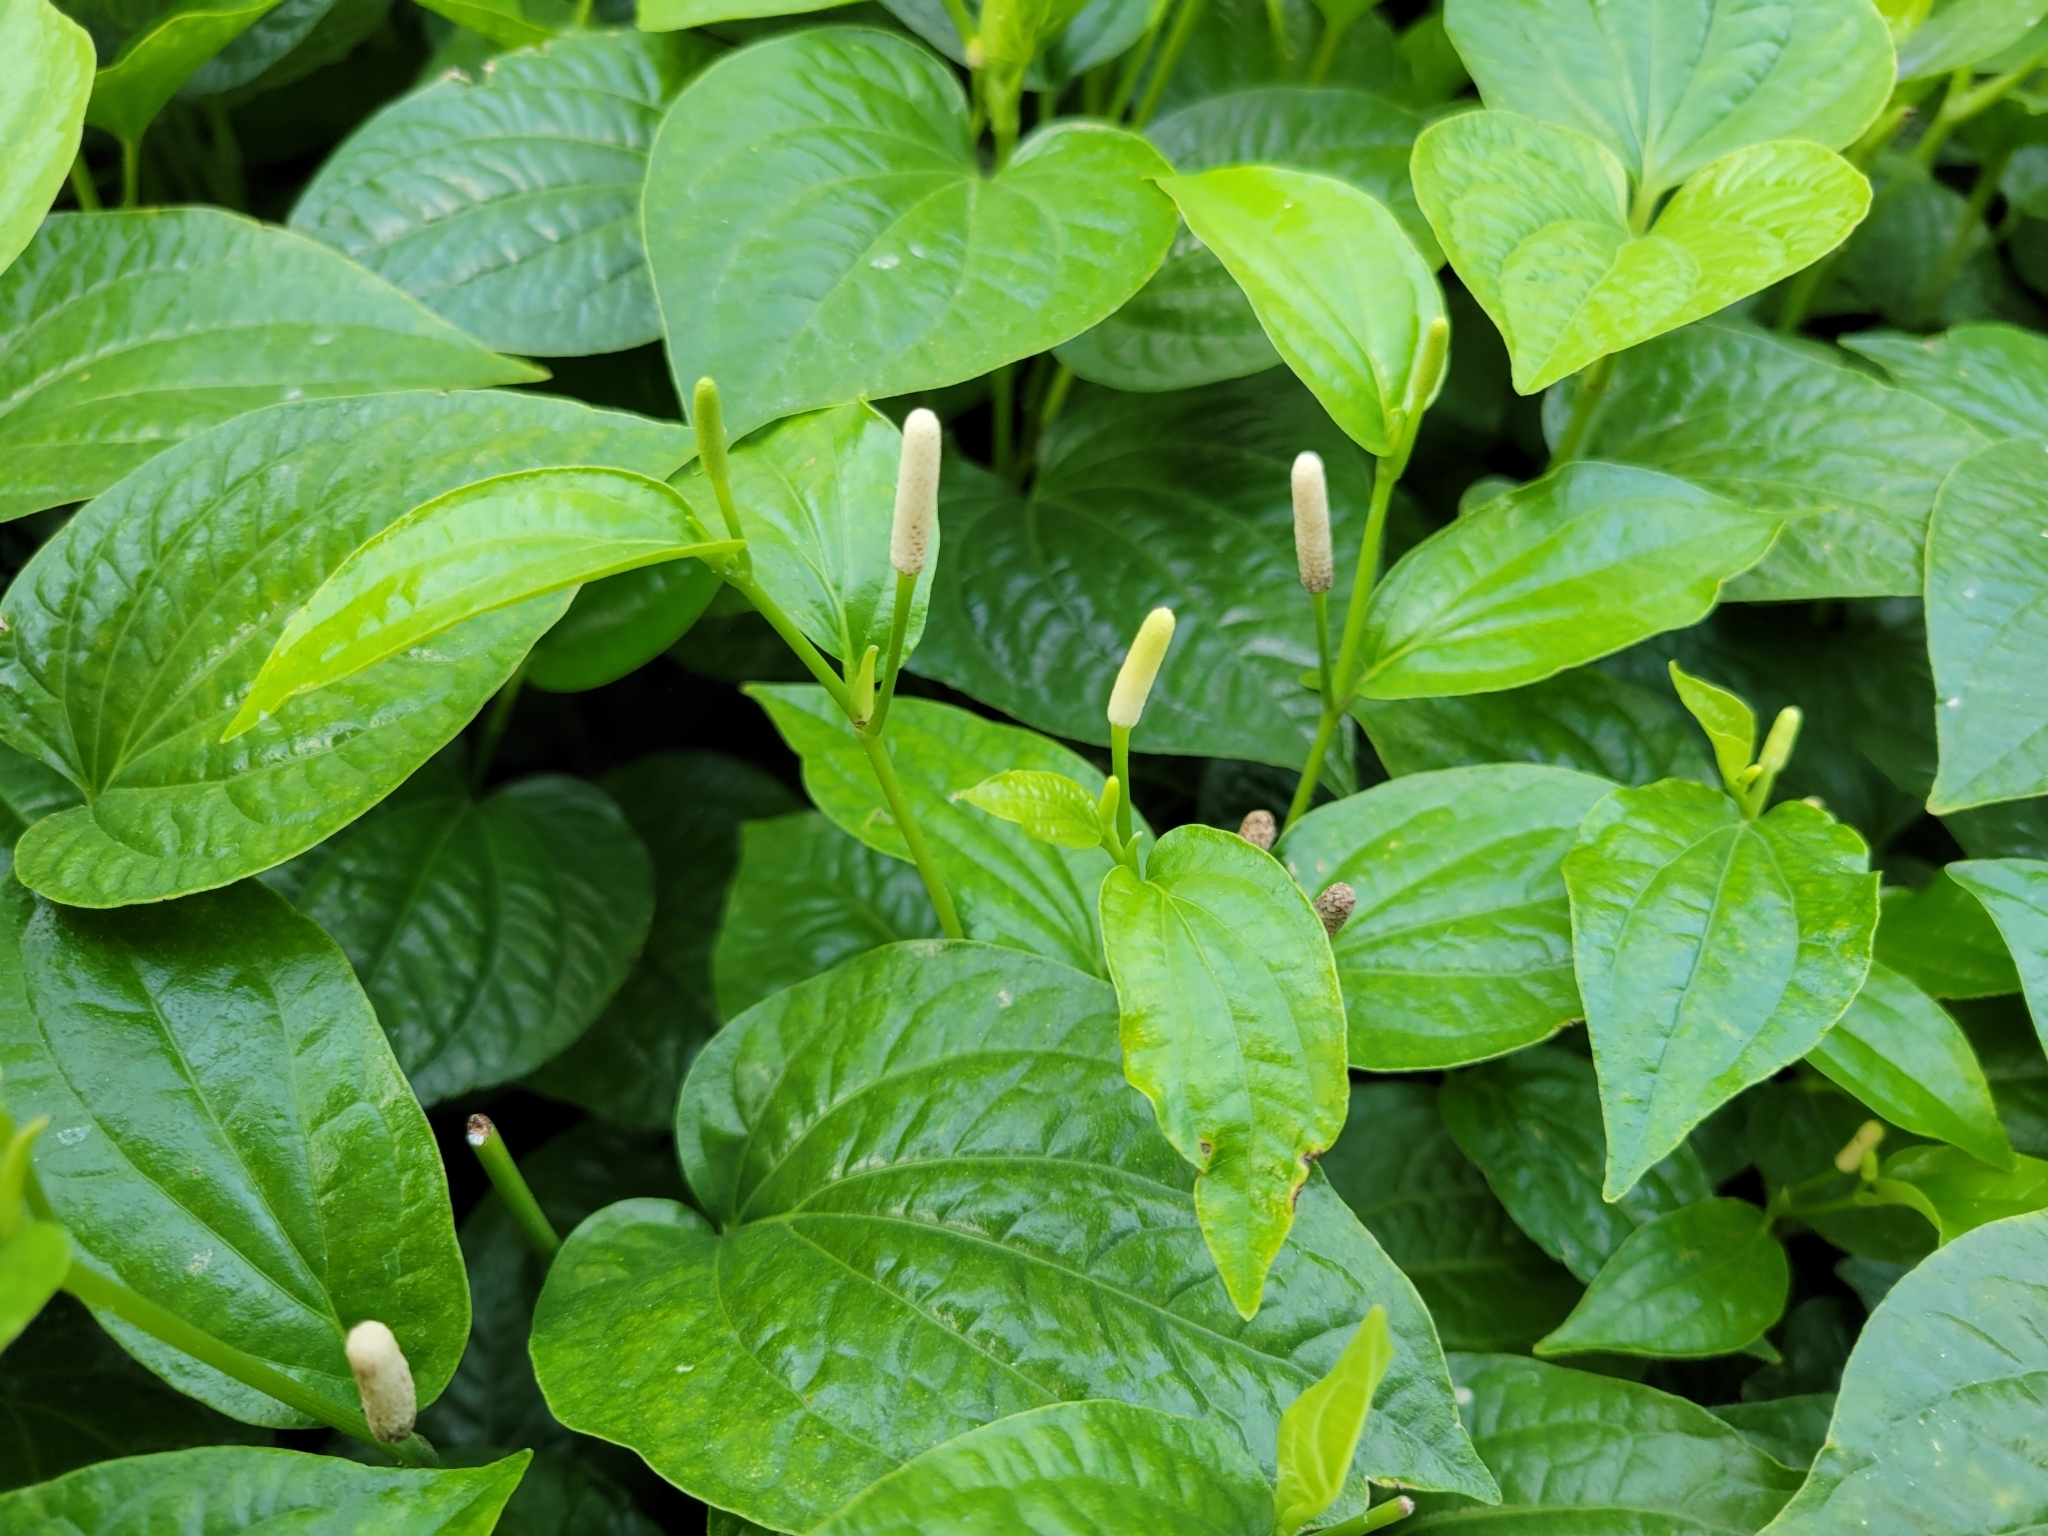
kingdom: Plantae
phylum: Tracheophyta
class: Magnoliopsida
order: Piperales
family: Piperaceae
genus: Piper
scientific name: Piper sarmentosum
